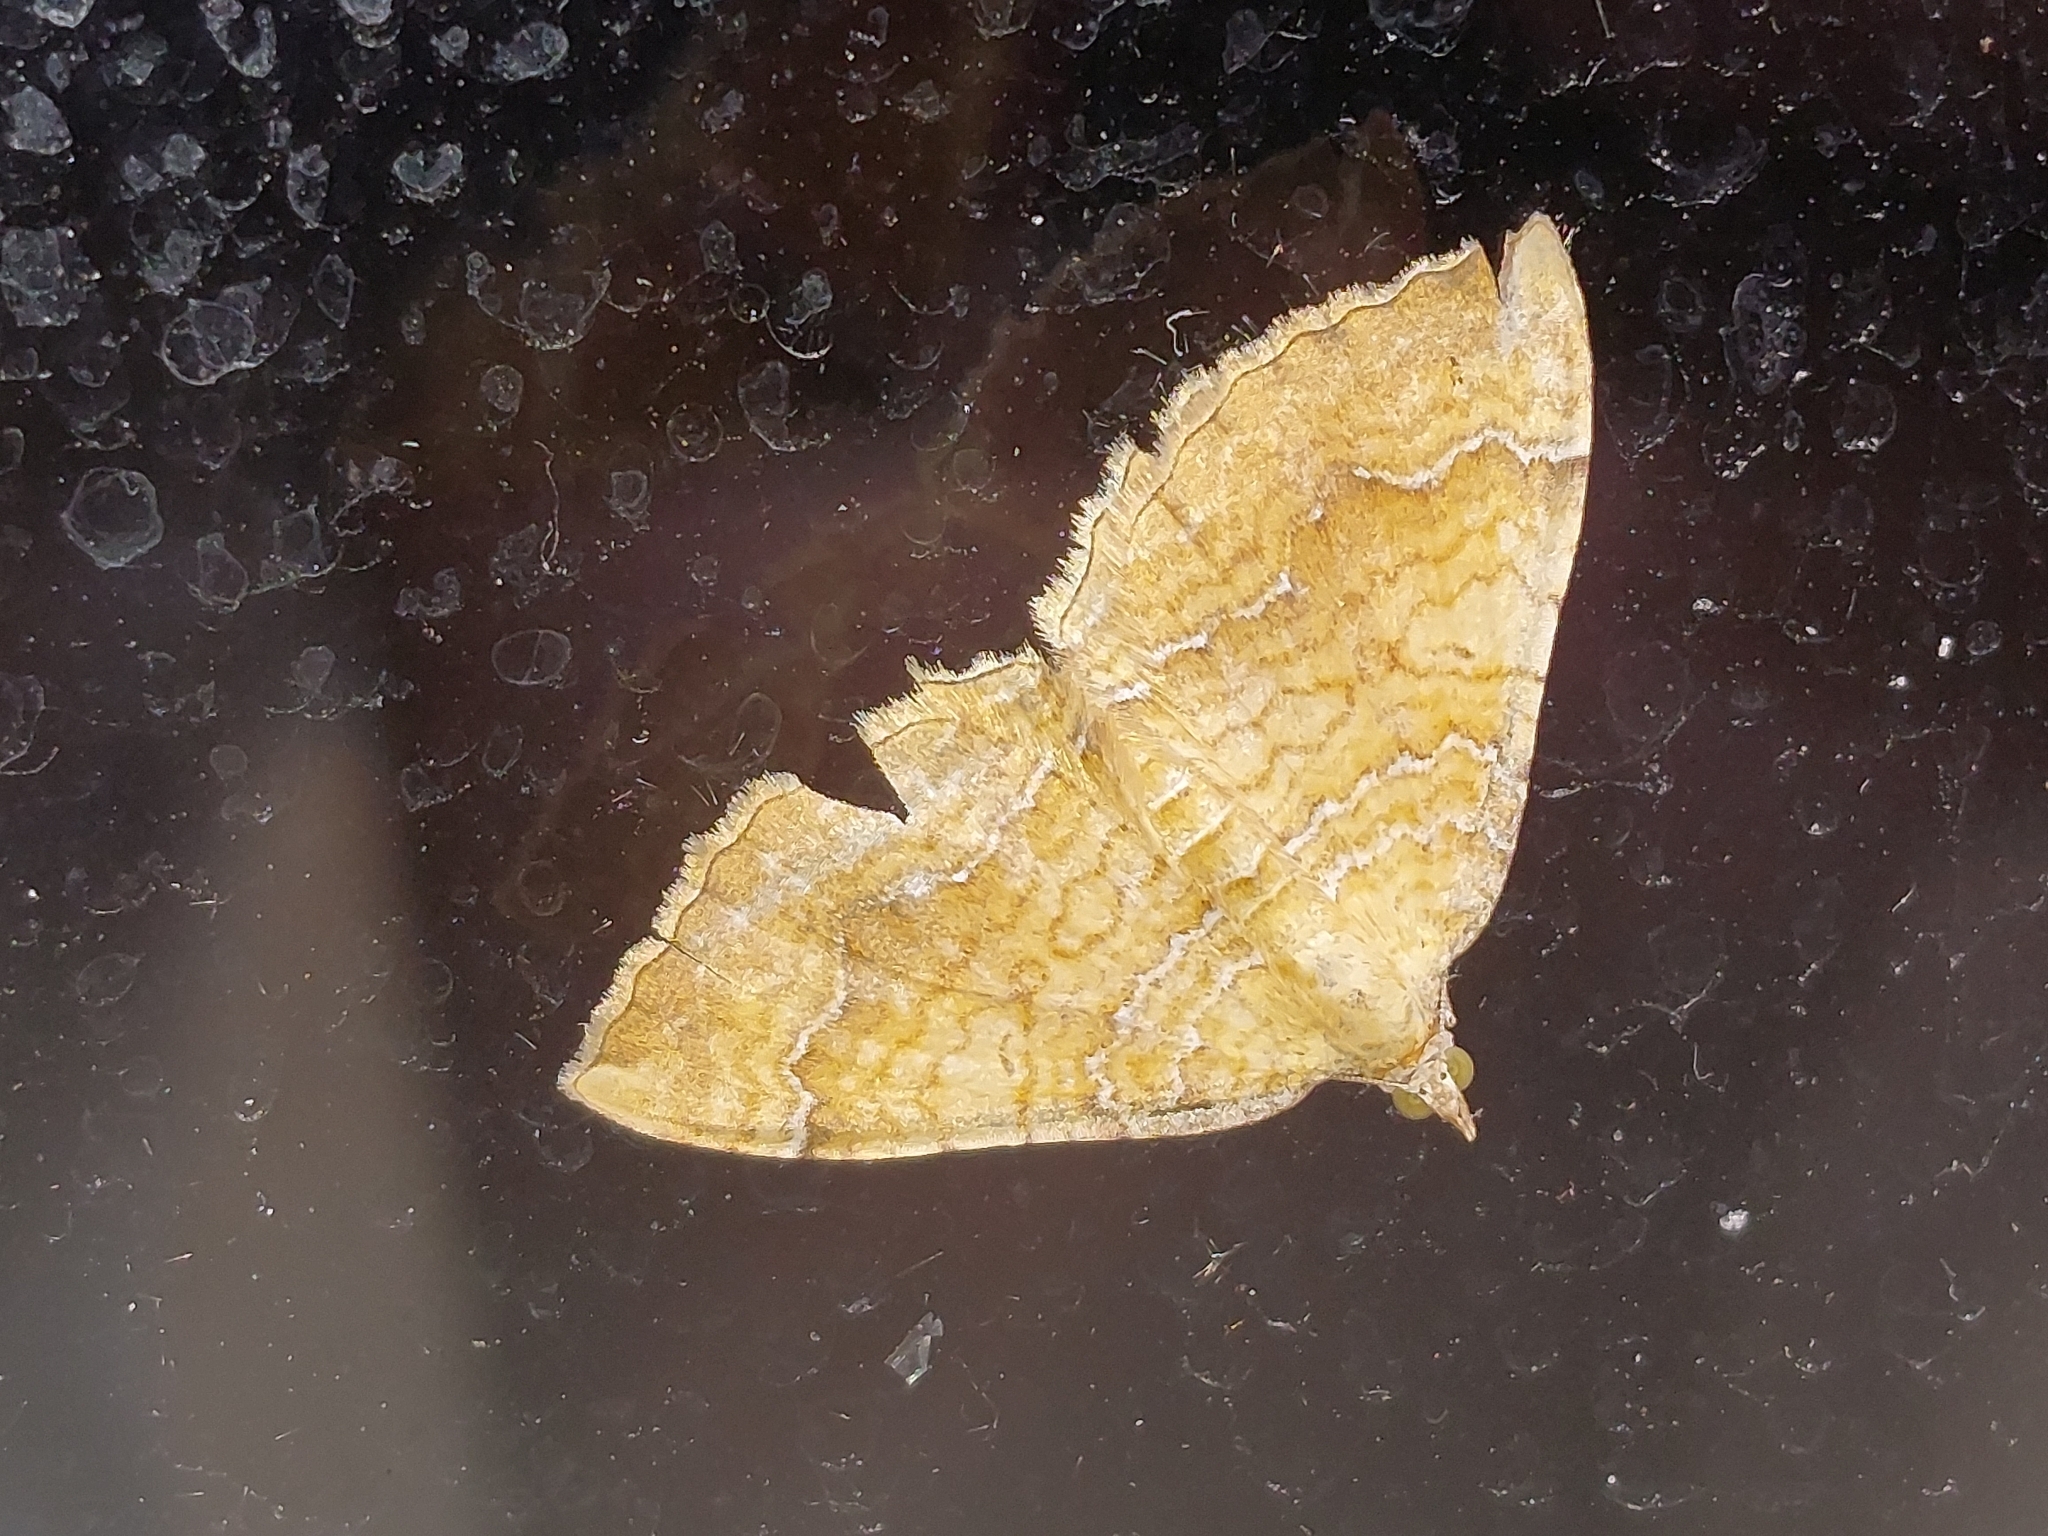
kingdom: Animalia
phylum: Arthropoda
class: Insecta
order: Lepidoptera
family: Geometridae
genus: Camptogramma
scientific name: Camptogramma bilineata
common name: Yellow shell
